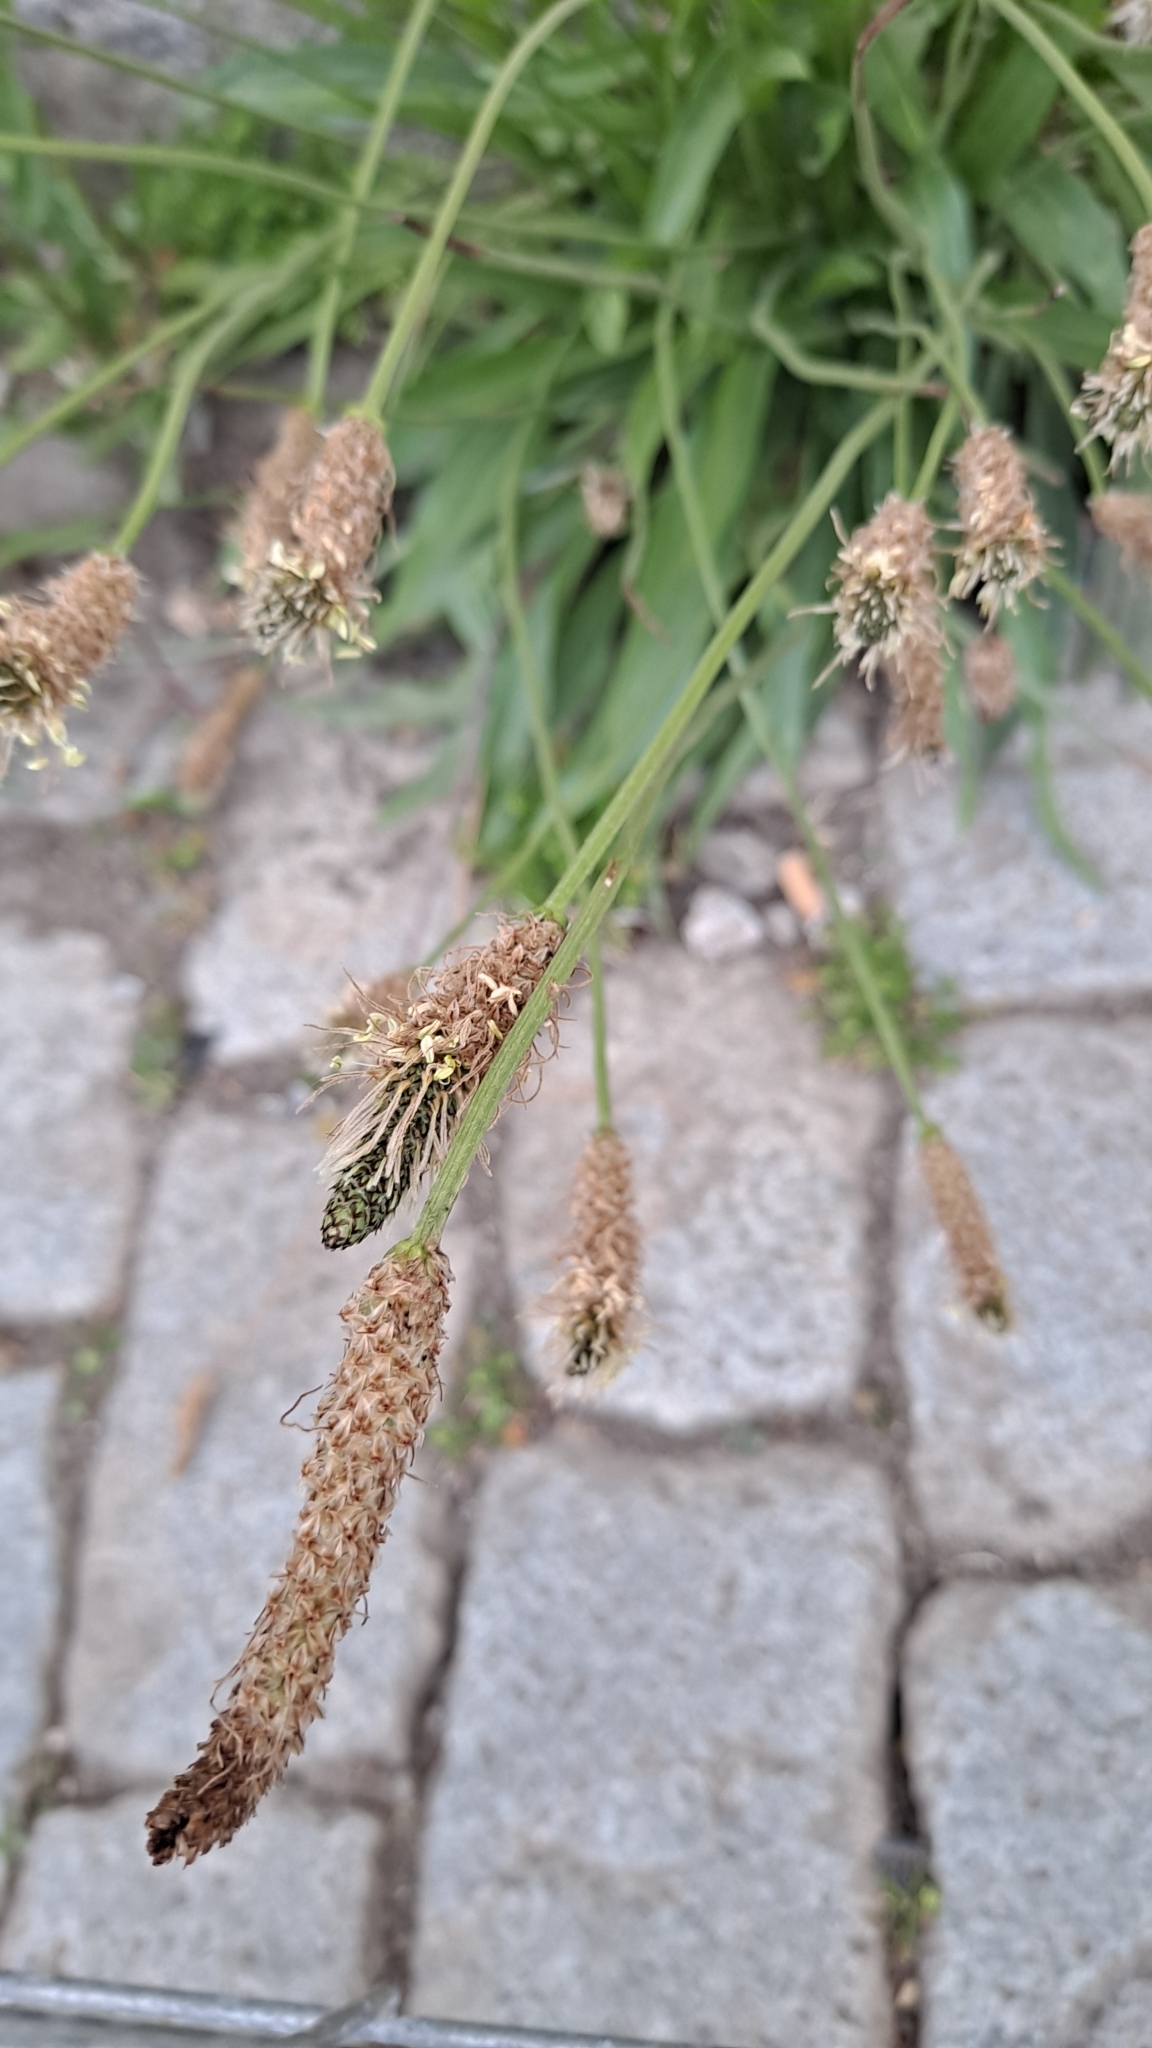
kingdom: Plantae
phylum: Tracheophyta
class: Magnoliopsida
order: Lamiales
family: Plantaginaceae
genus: Plantago
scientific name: Plantago lanceolata
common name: Ribwort plantain
